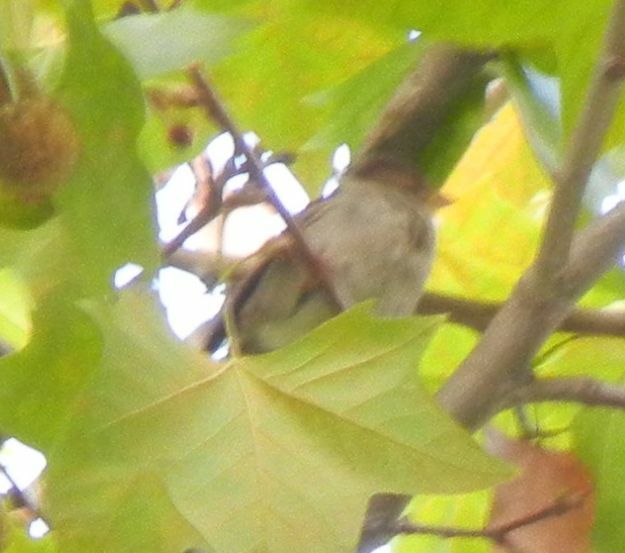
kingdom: Animalia
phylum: Chordata
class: Aves
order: Passeriformes
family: Passeridae
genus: Passer
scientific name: Passer domesticus
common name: House sparrow
